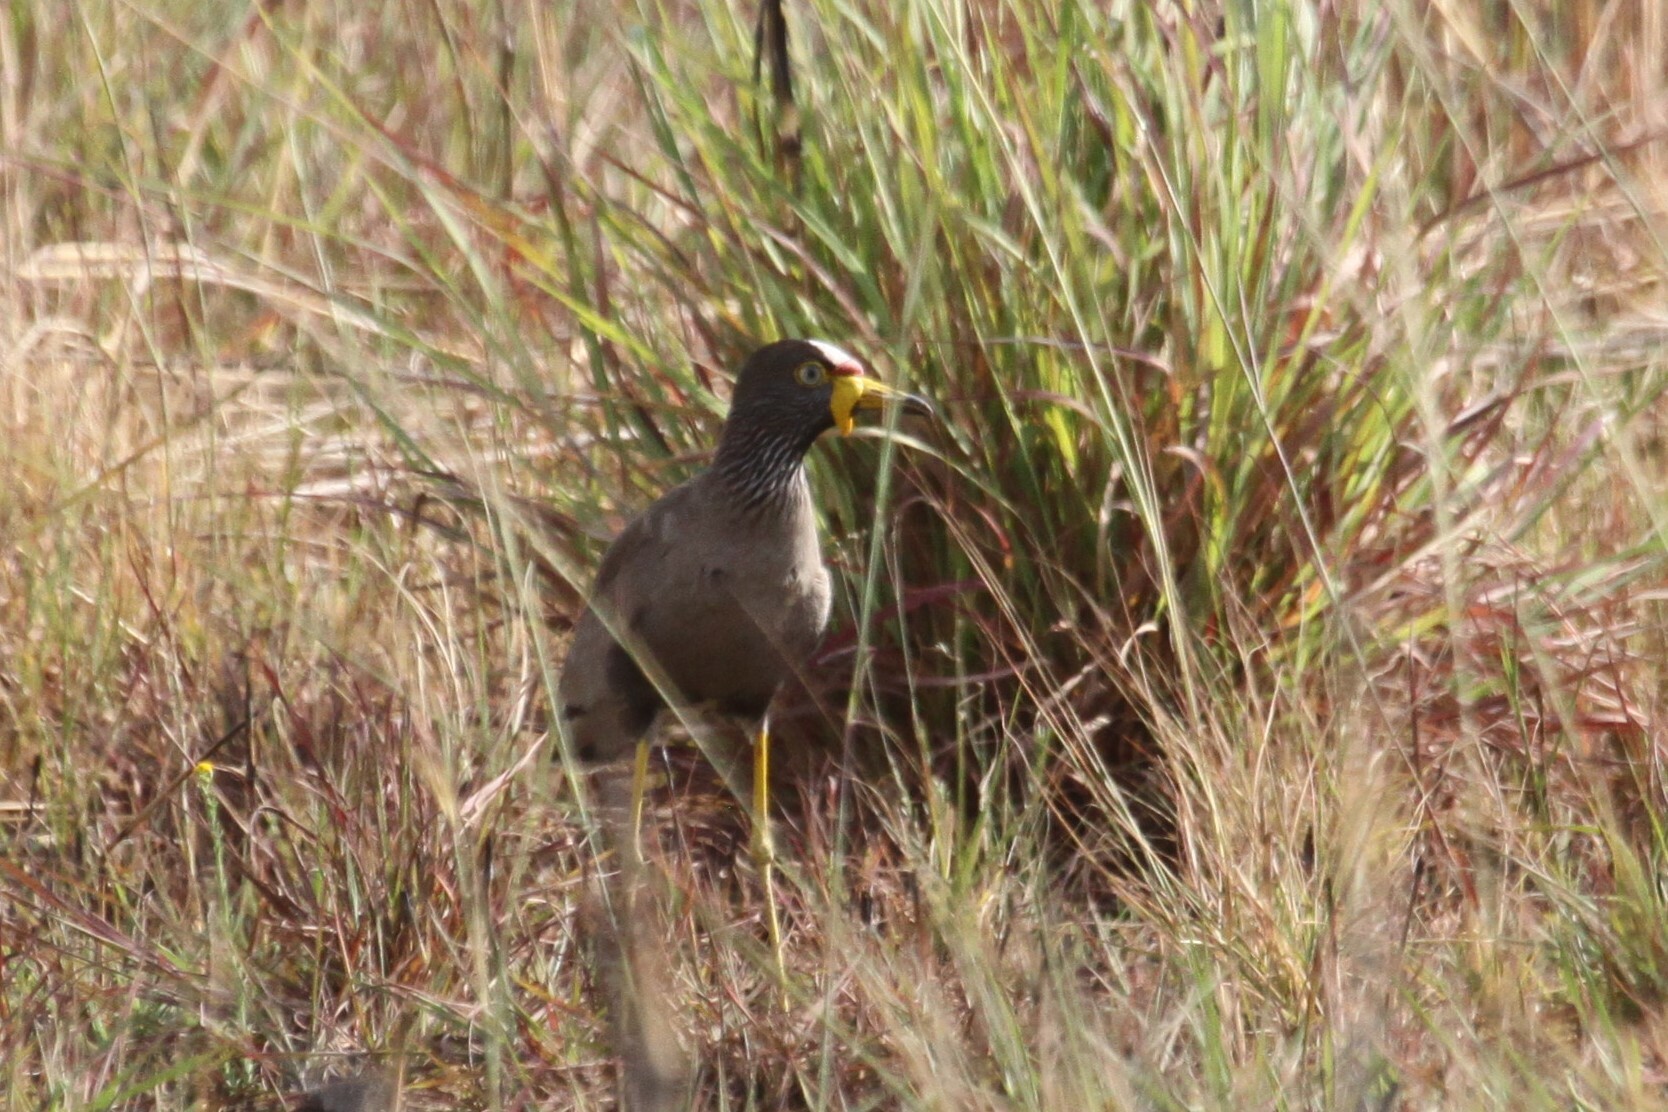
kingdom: Animalia
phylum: Chordata
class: Aves
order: Charadriiformes
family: Charadriidae
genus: Vanellus
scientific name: Vanellus senegallus
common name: African wattled lapwing
